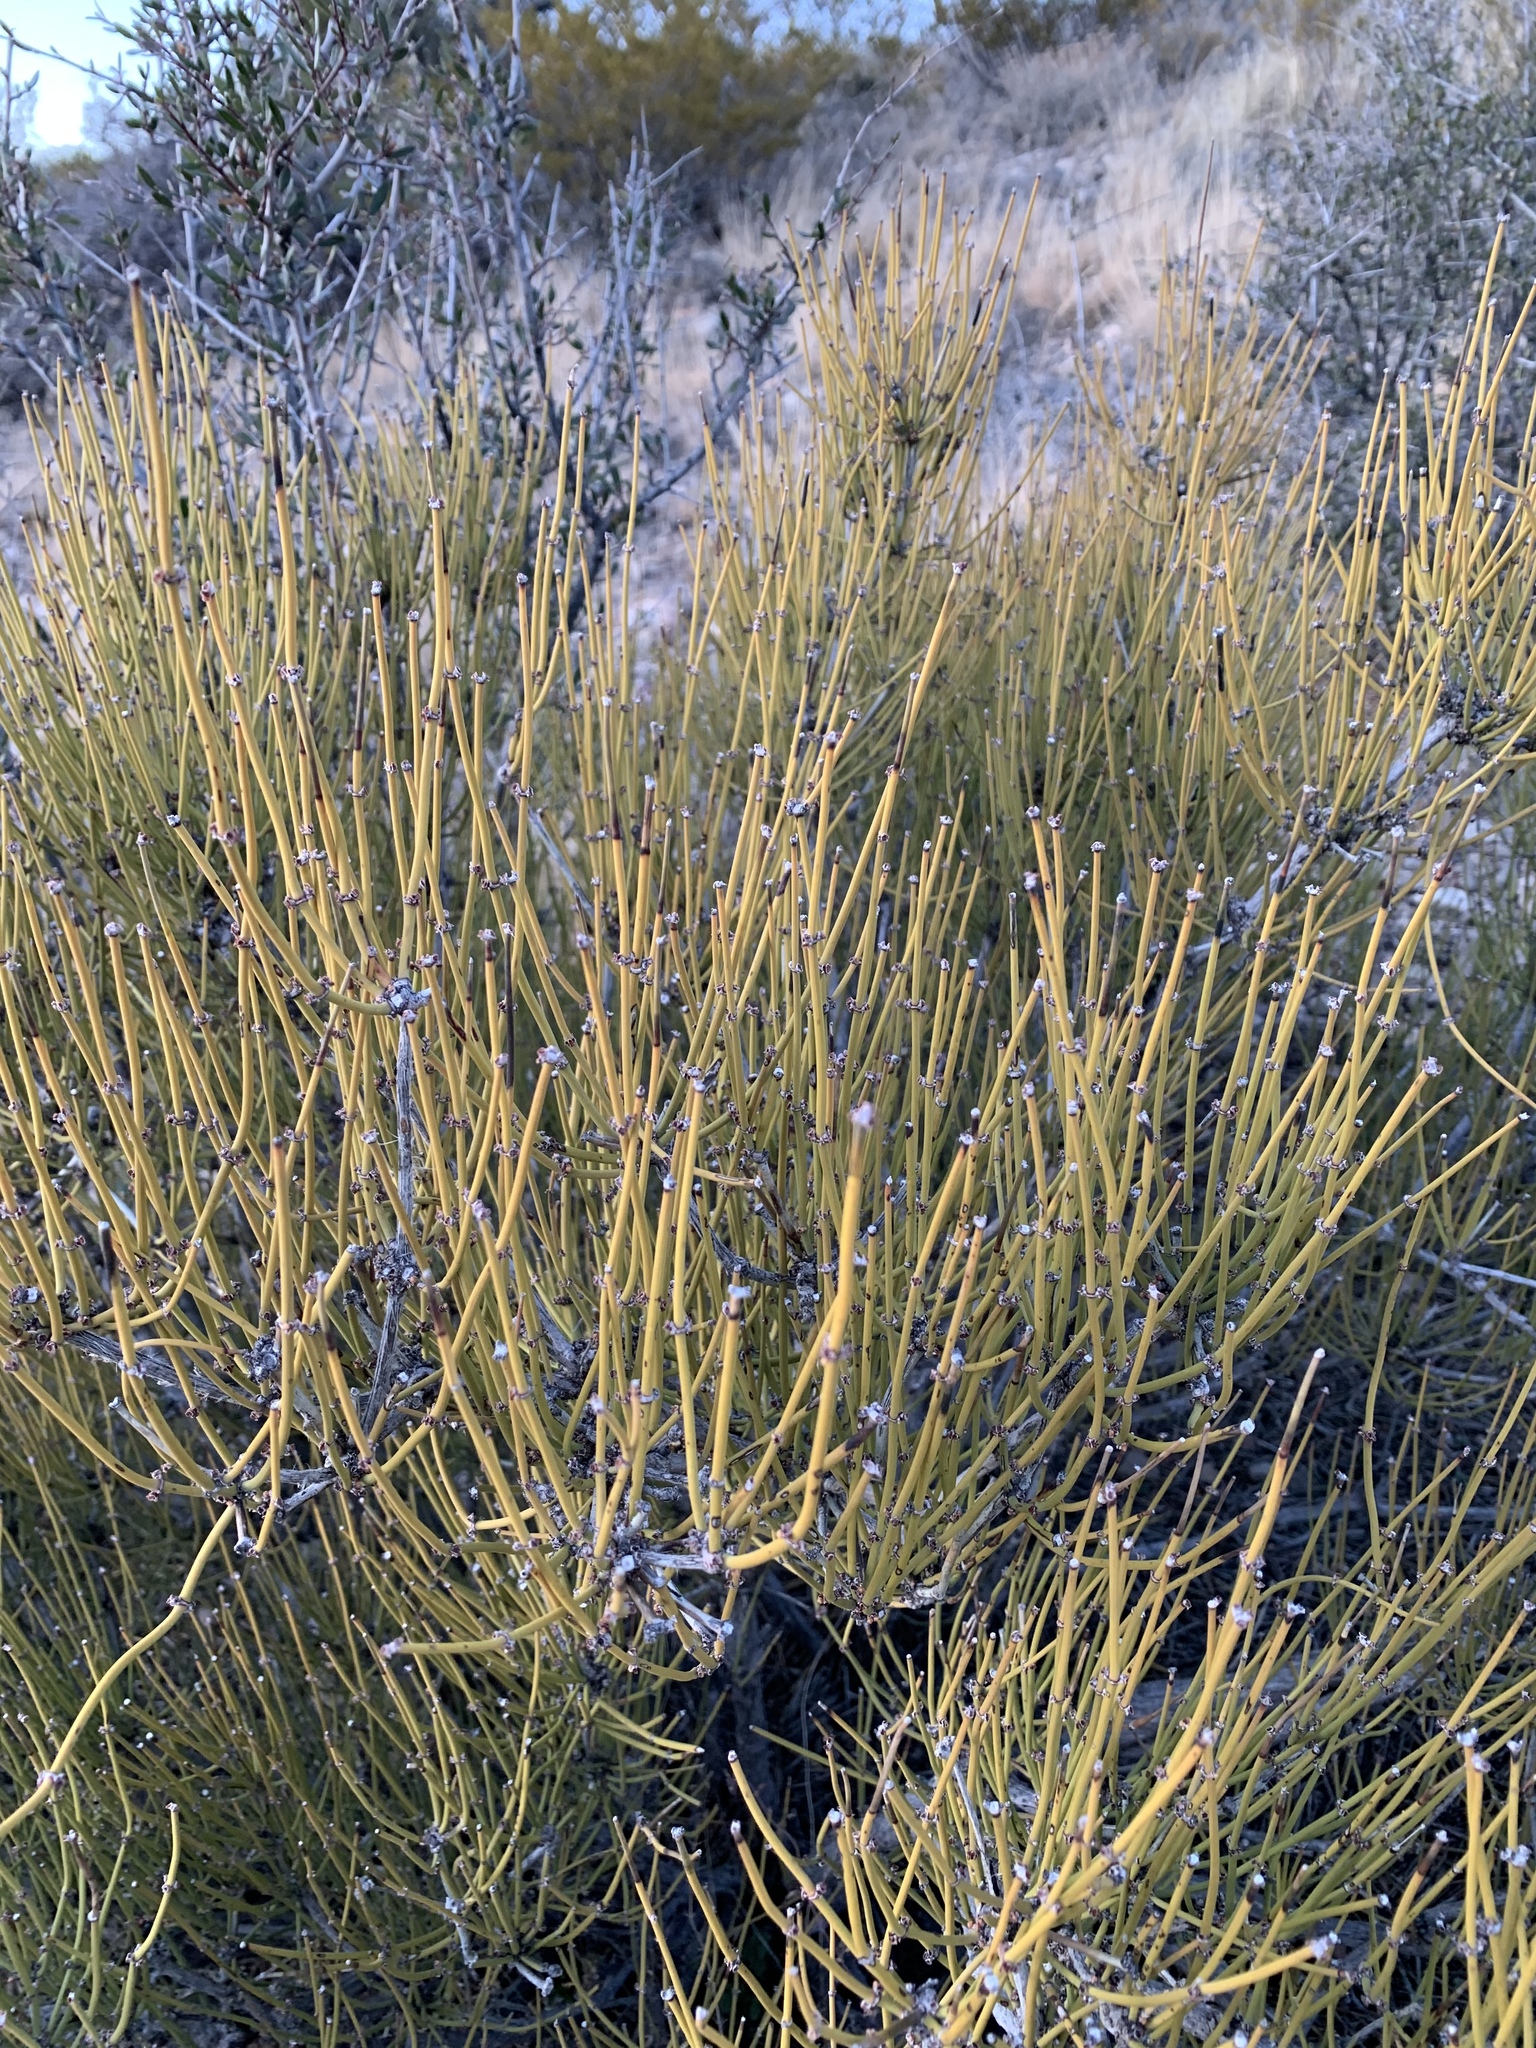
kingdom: Plantae
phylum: Tracheophyta
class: Gnetopsida
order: Ephedrales
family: Ephedraceae
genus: Ephedra
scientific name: Ephedra viridis
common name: Green ephedra
